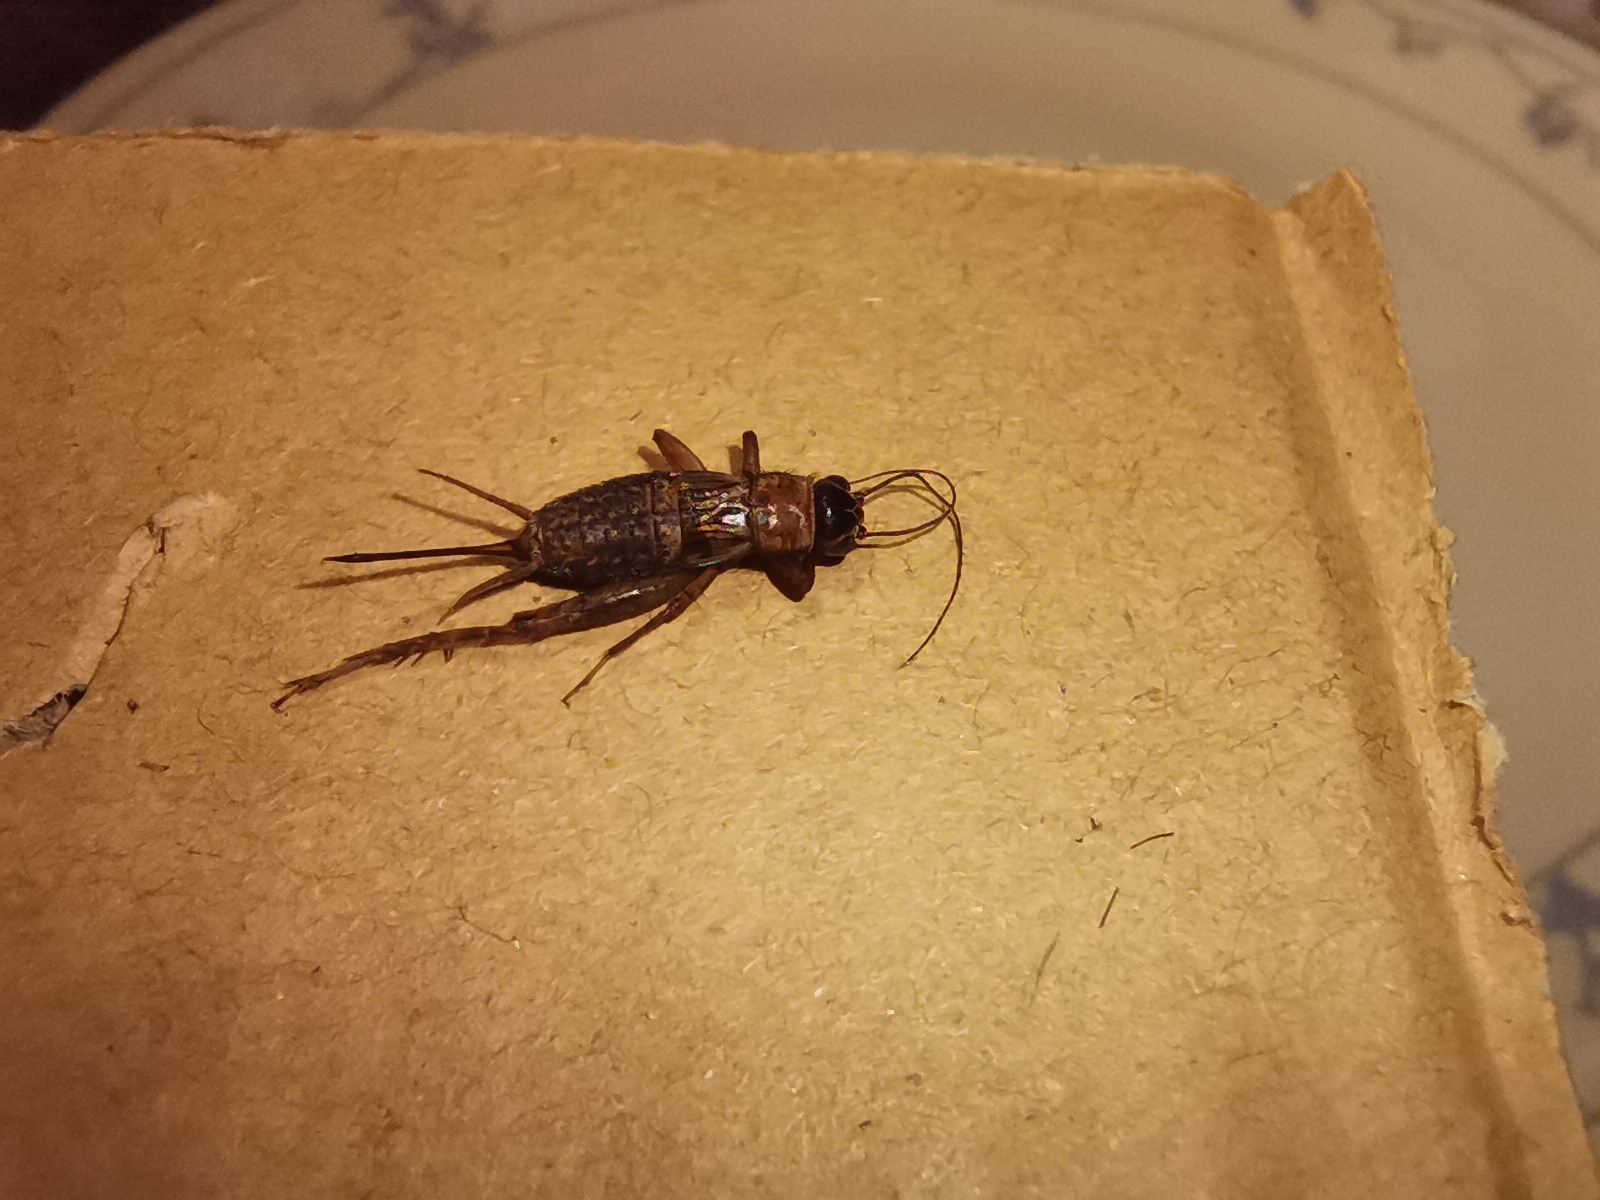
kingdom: Animalia
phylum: Arthropoda
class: Insecta
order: Orthoptera
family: Trigonidiidae
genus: Nemobius
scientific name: Nemobius sylvestris
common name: Wood-cricket
